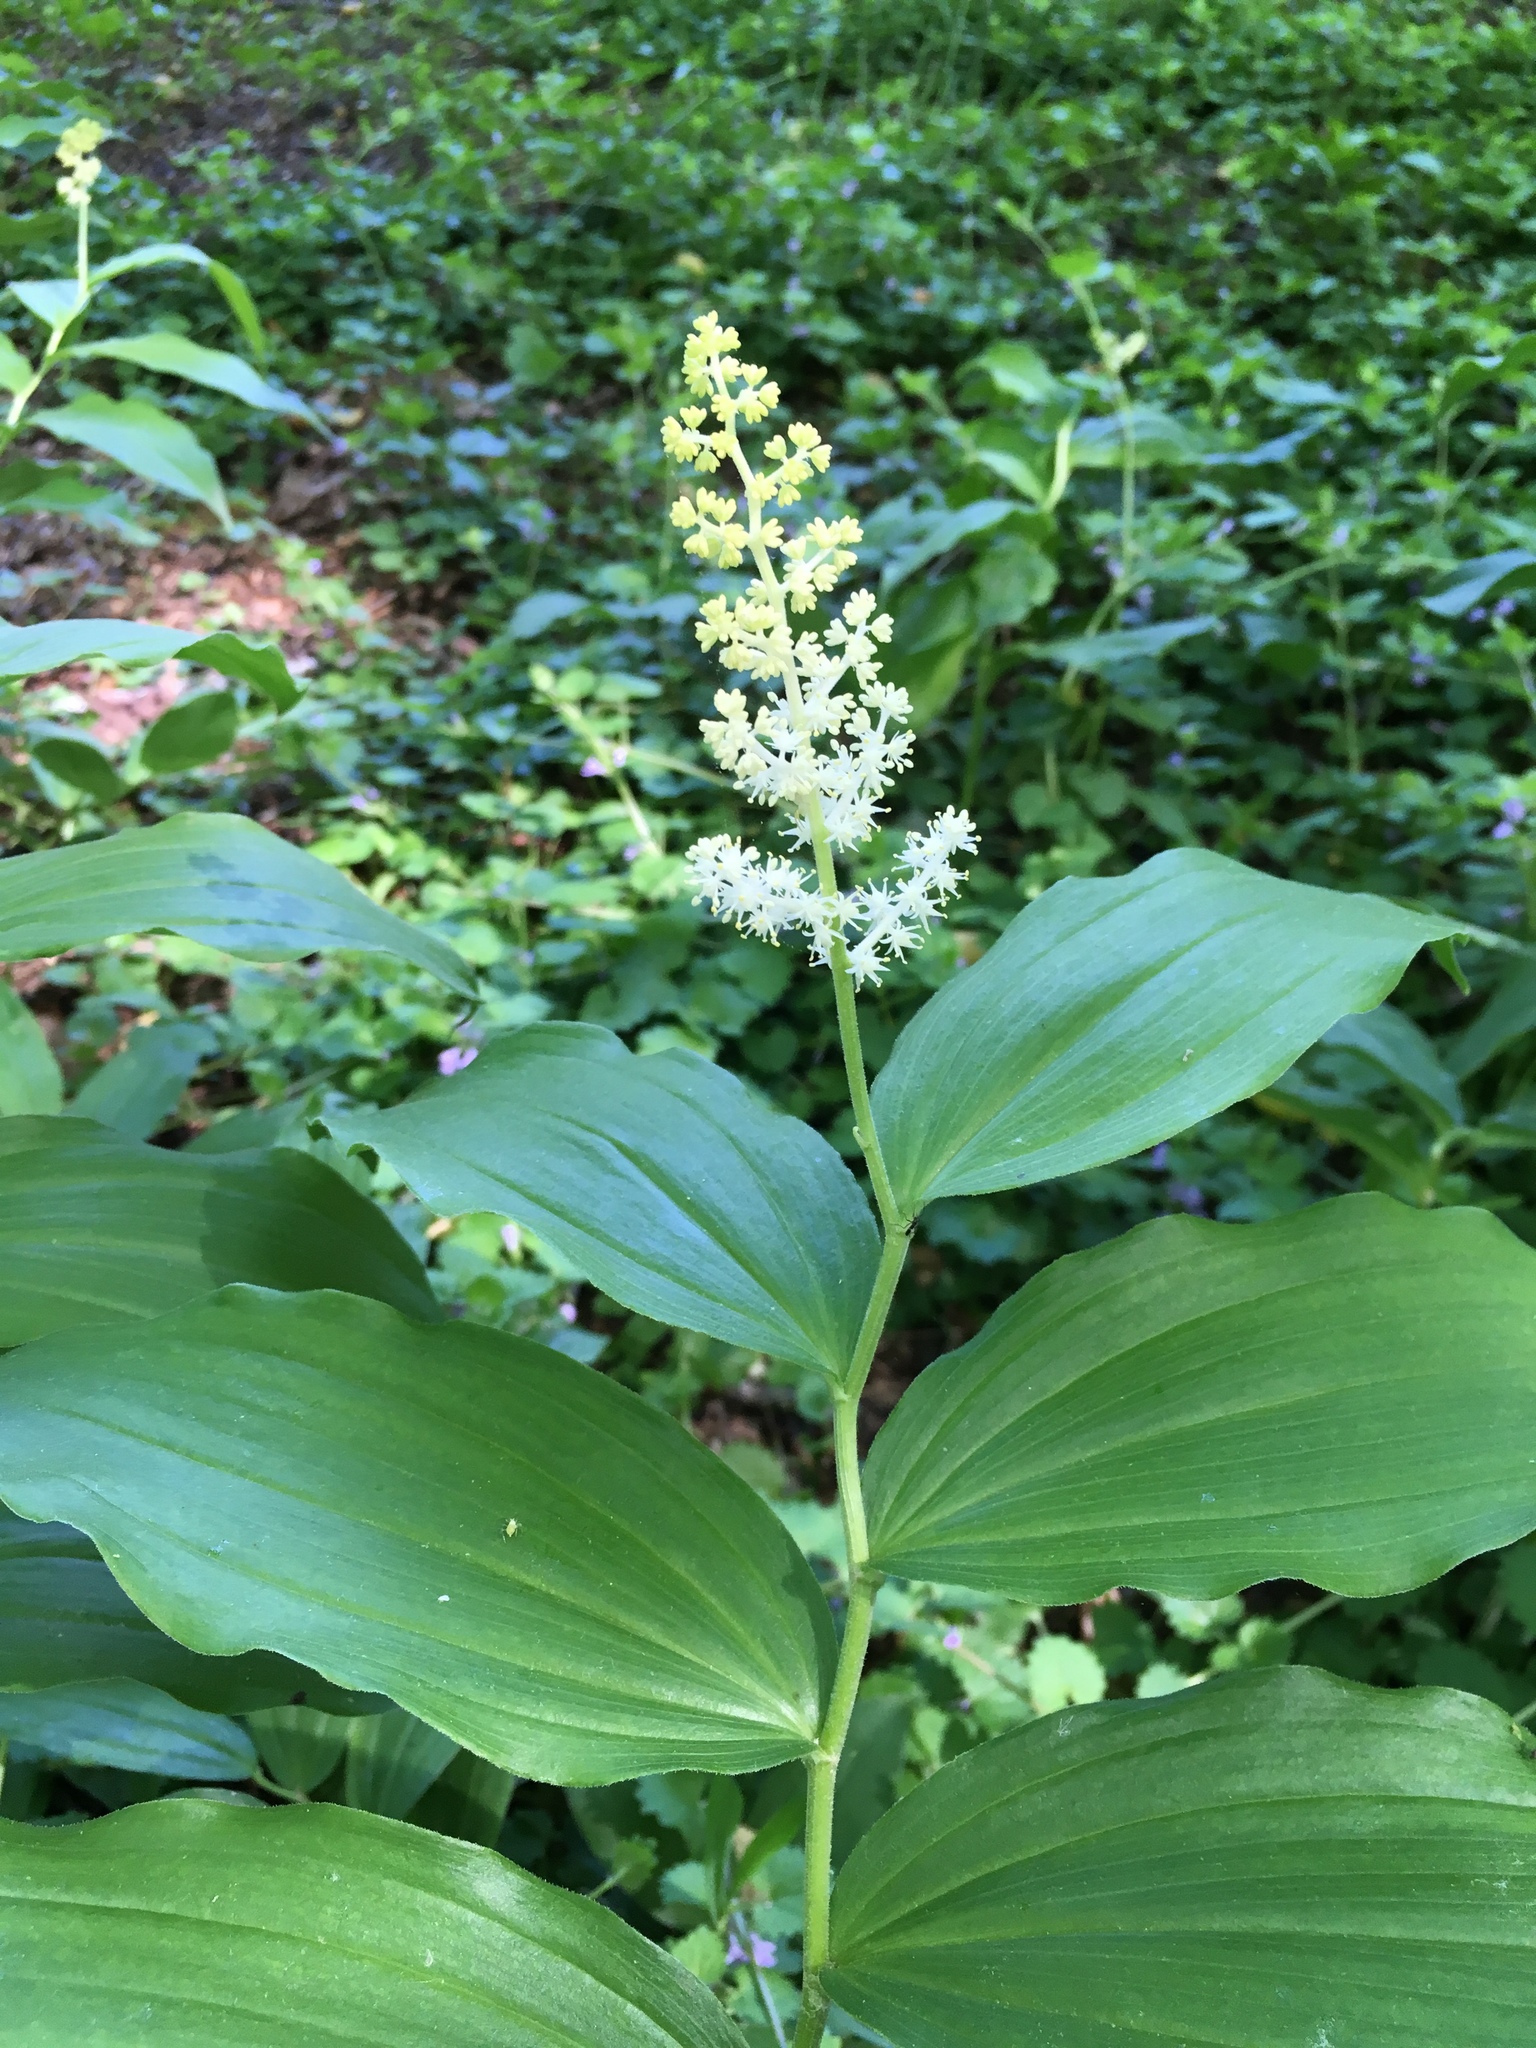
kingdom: Plantae
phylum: Tracheophyta
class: Liliopsida
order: Asparagales
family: Asparagaceae
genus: Maianthemum
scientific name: Maianthemum racemosum
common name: False spikenard
